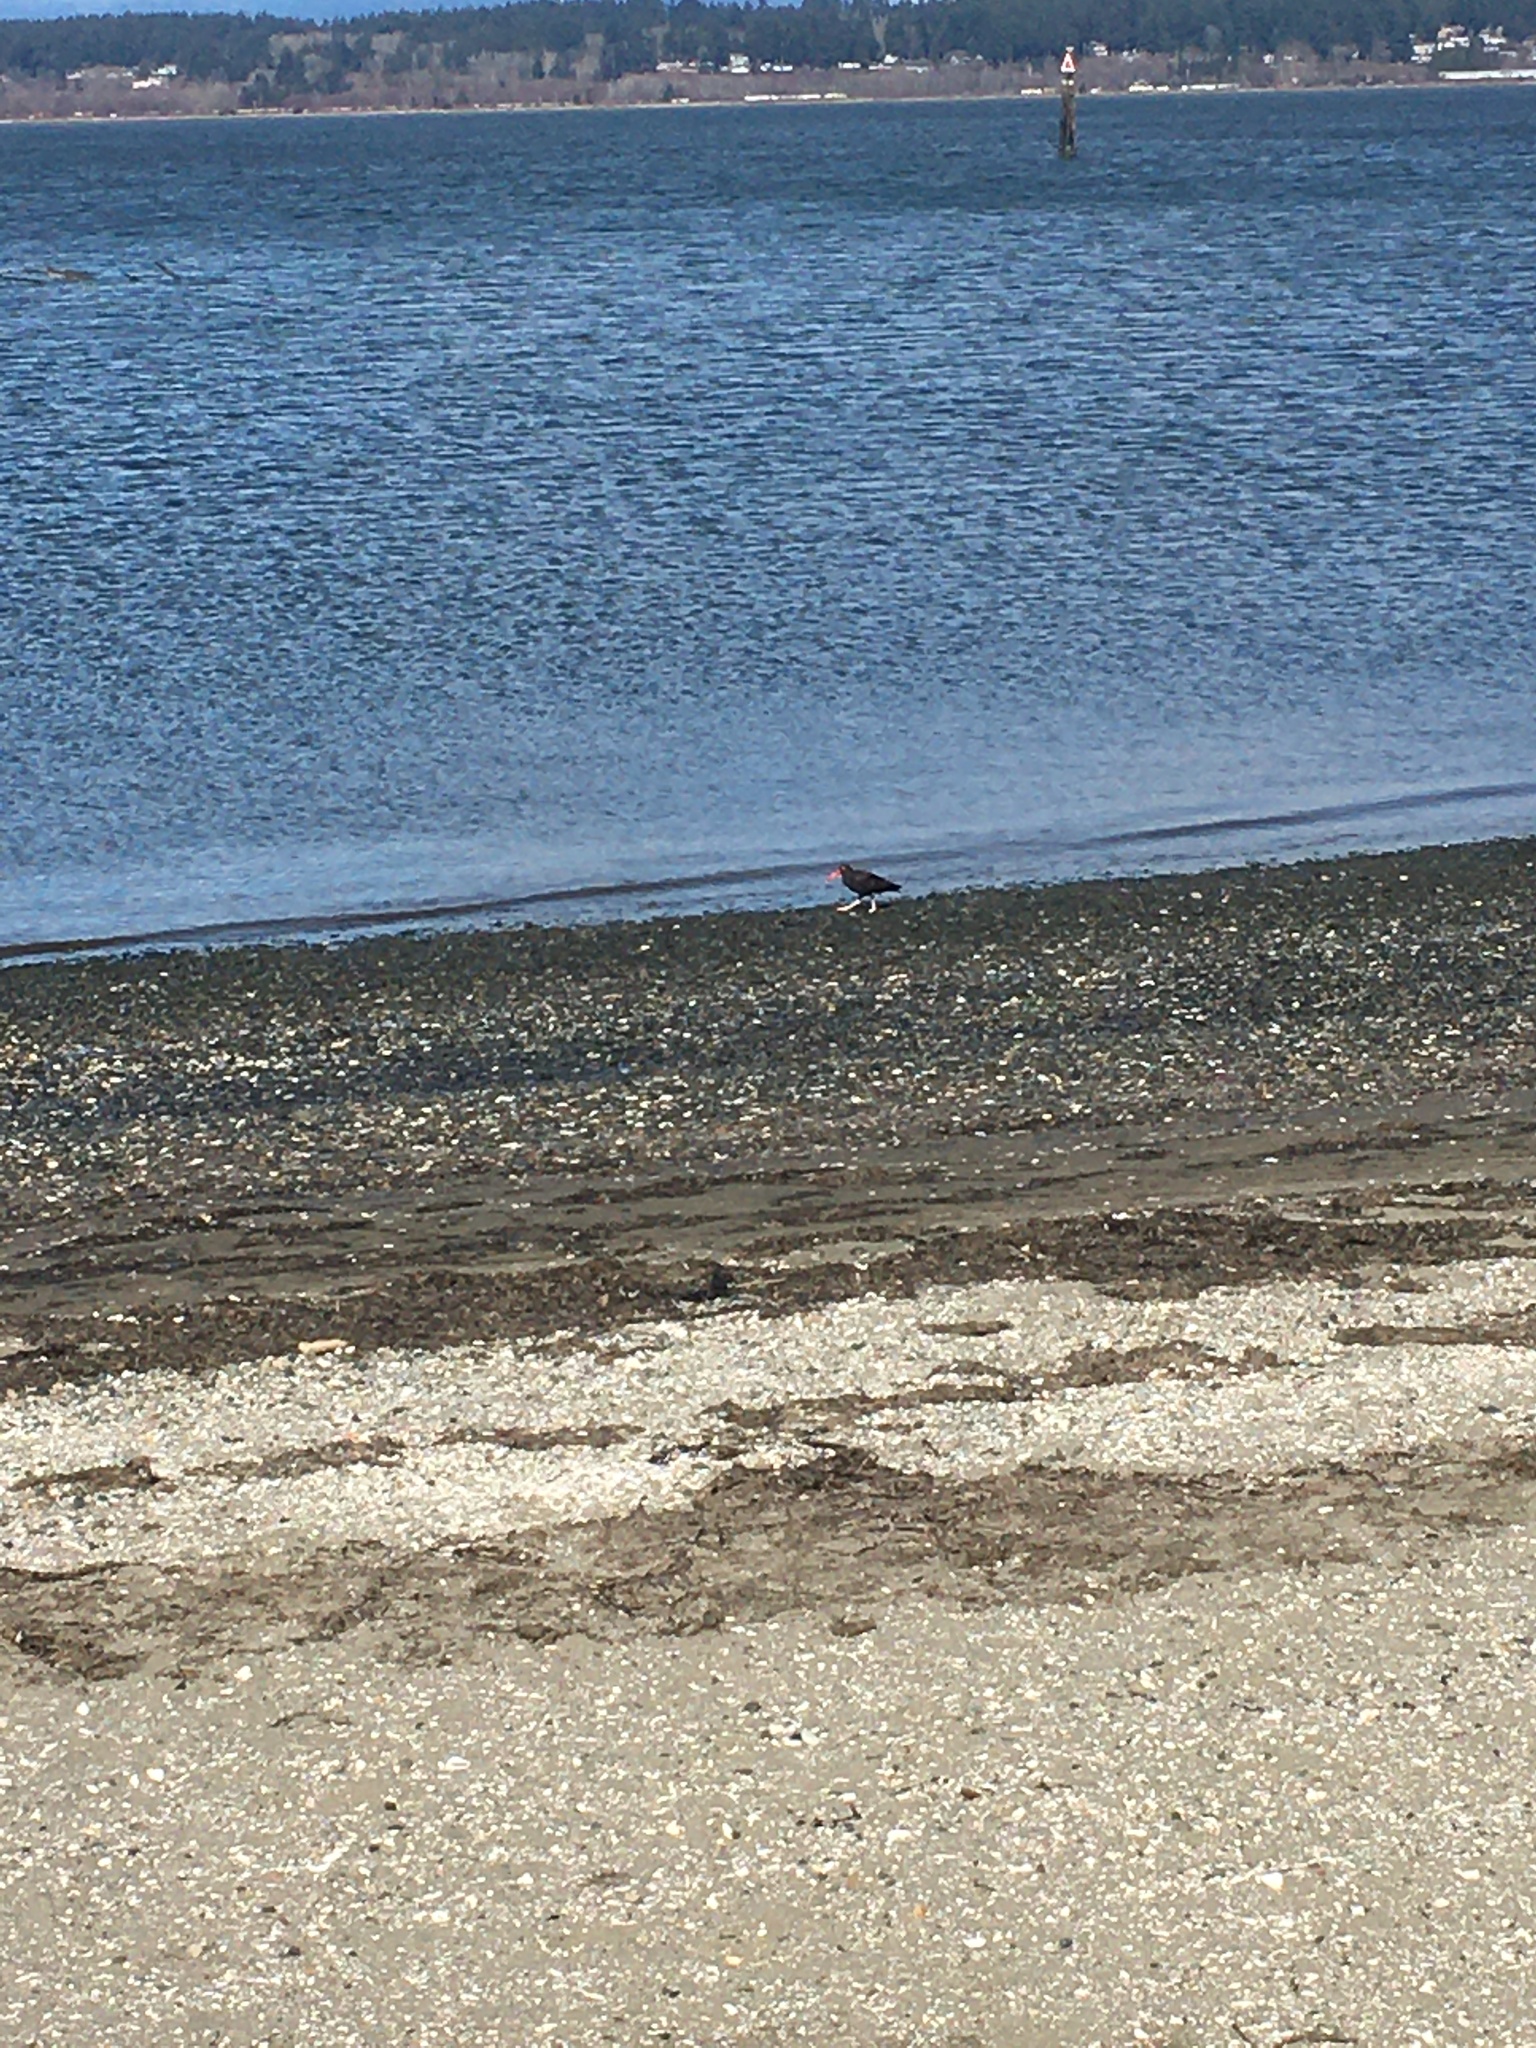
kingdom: Animalia
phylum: Chordata
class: Aves
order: Charadriiformes
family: Haematopodidae
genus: Haematopus
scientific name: Haematopus bachmani
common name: Black oystercatcher
